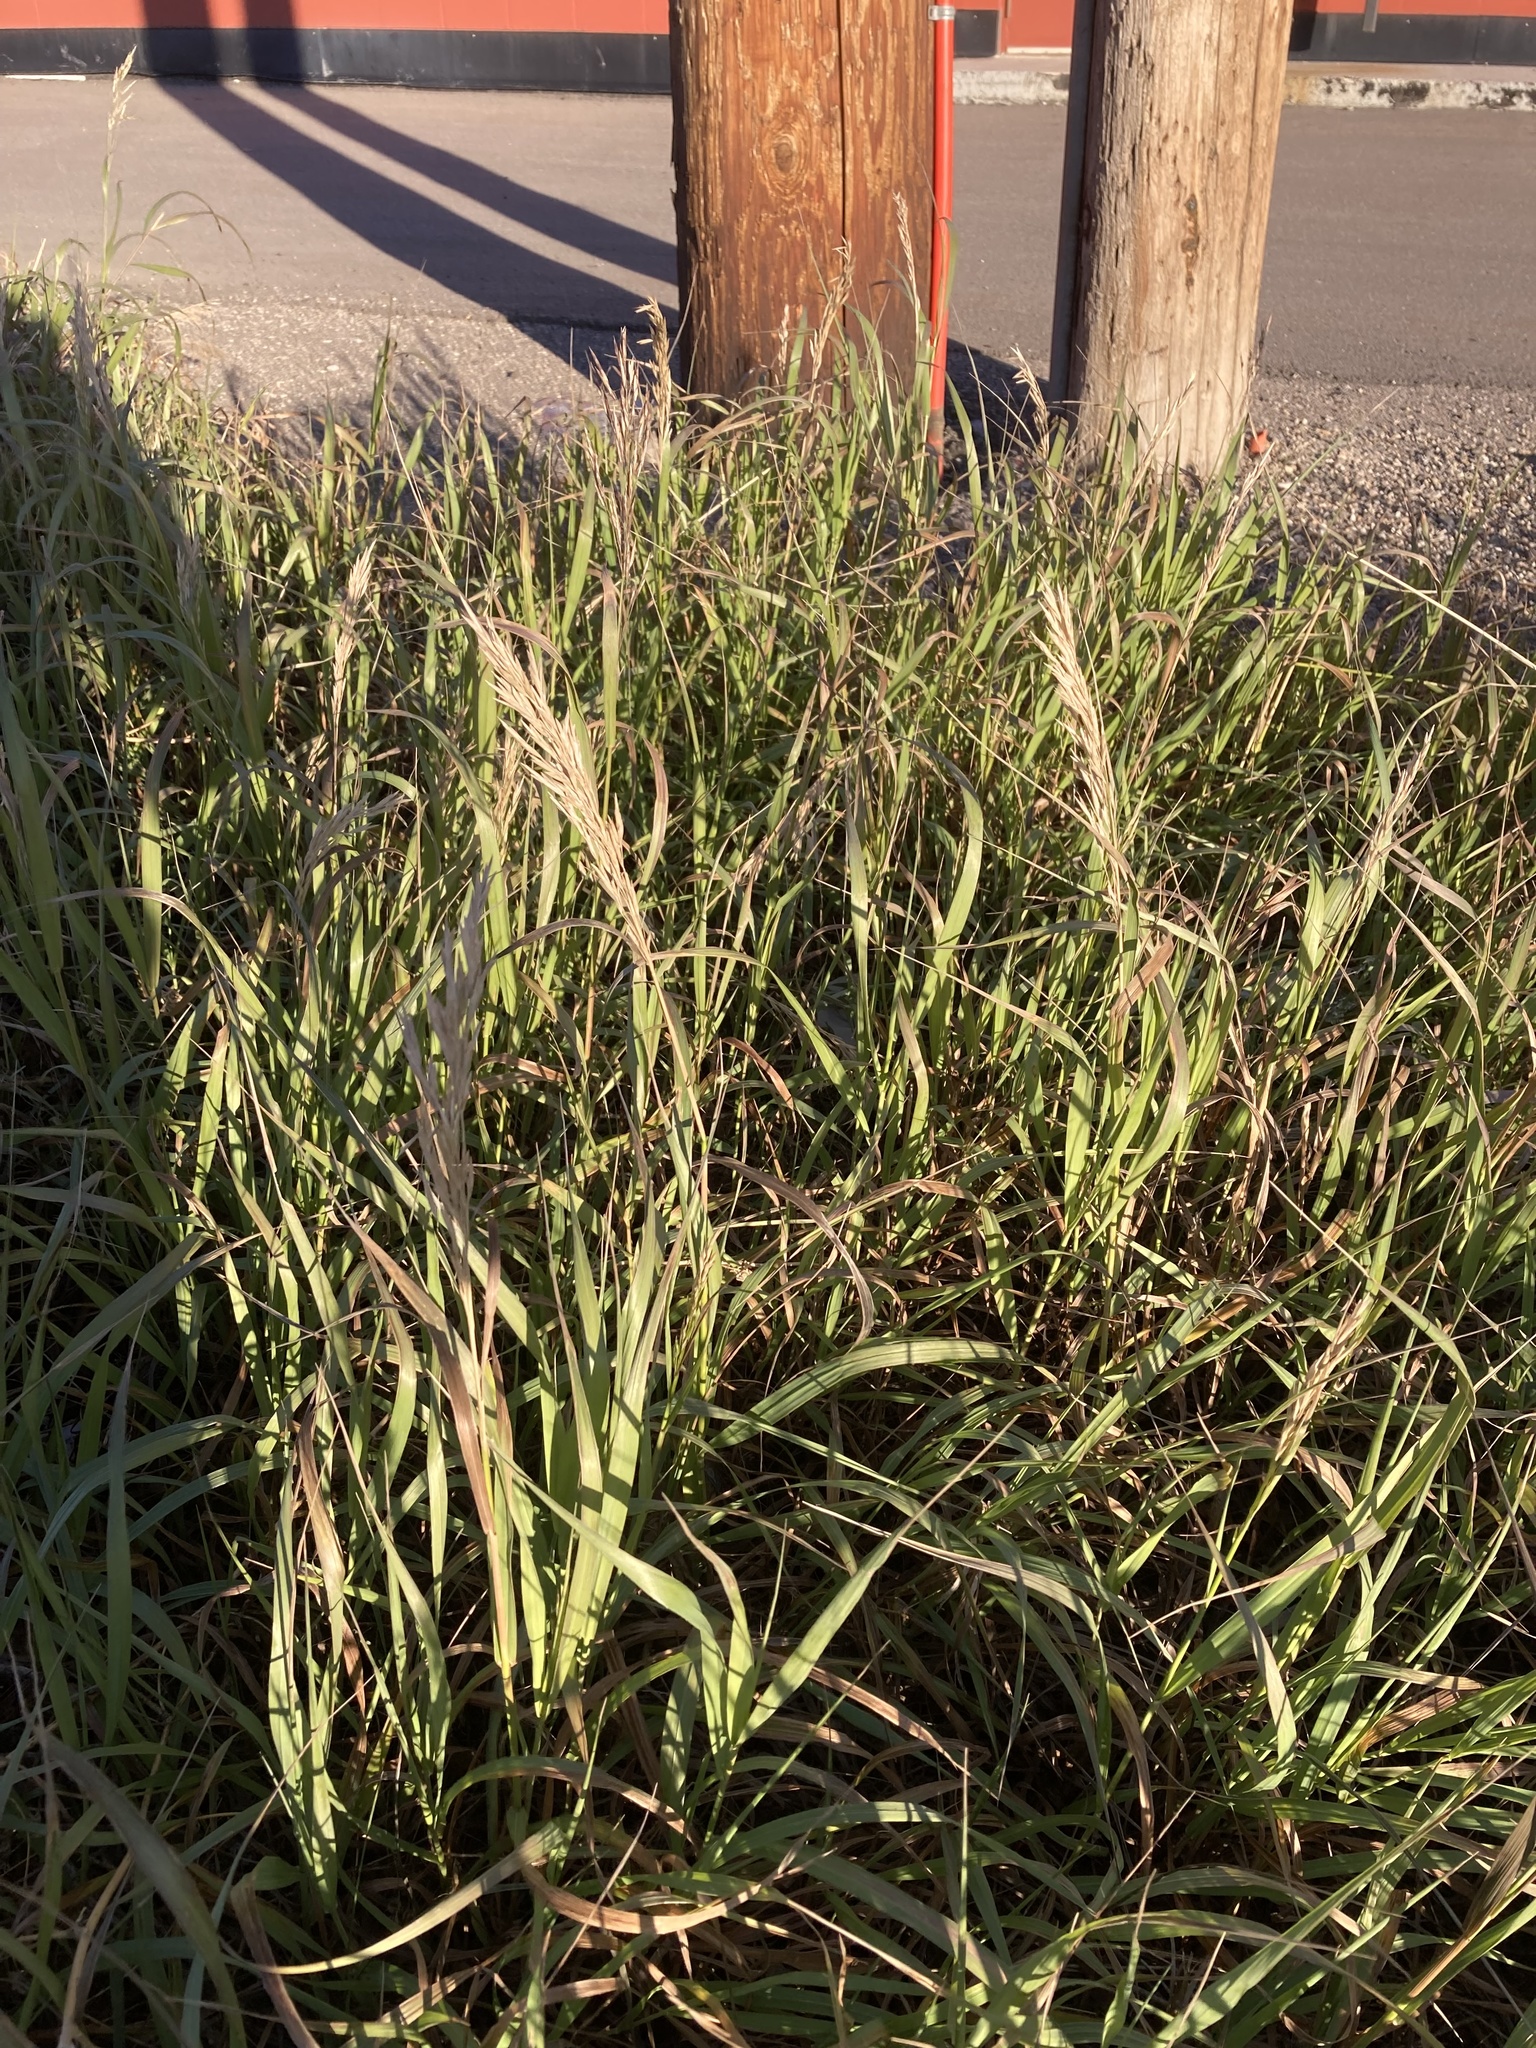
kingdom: Plantae
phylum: Tracheophyta
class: Liliopsida
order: Poales
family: Poaceae
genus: Bromus
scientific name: Bromus inermis
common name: Smooth brome
